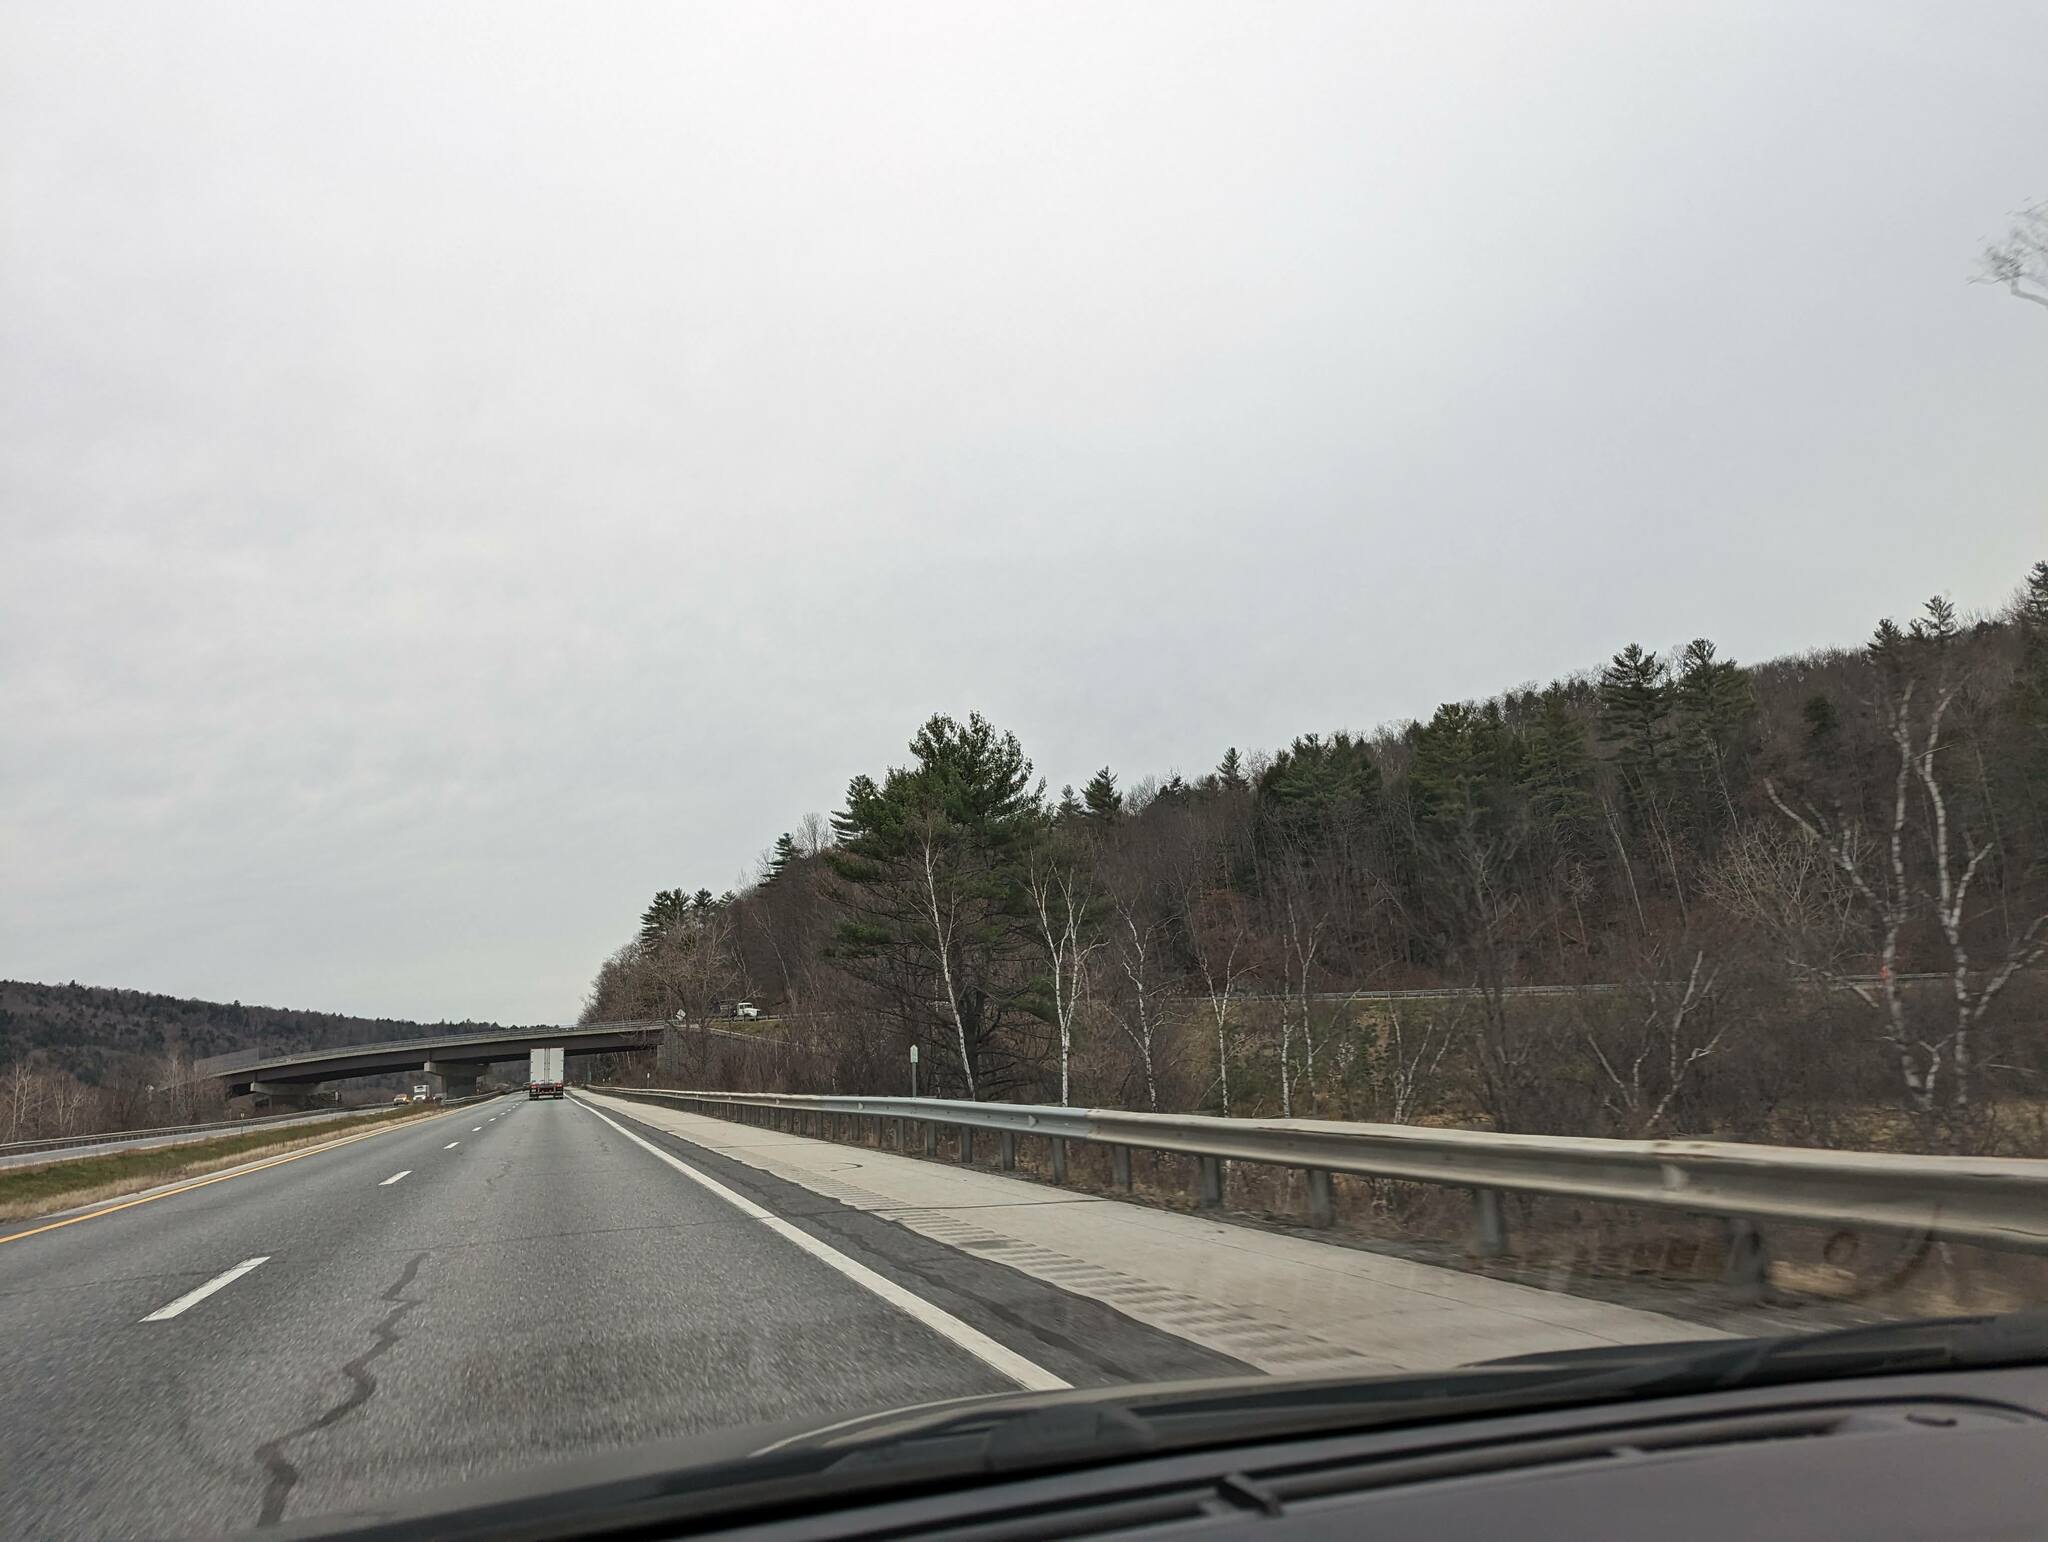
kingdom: Plantae
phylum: Tracheophyta
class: Pinopsida
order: Pinales
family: Pinaceae
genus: Pinus
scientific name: Pinus strobus
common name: Weymouth pine
